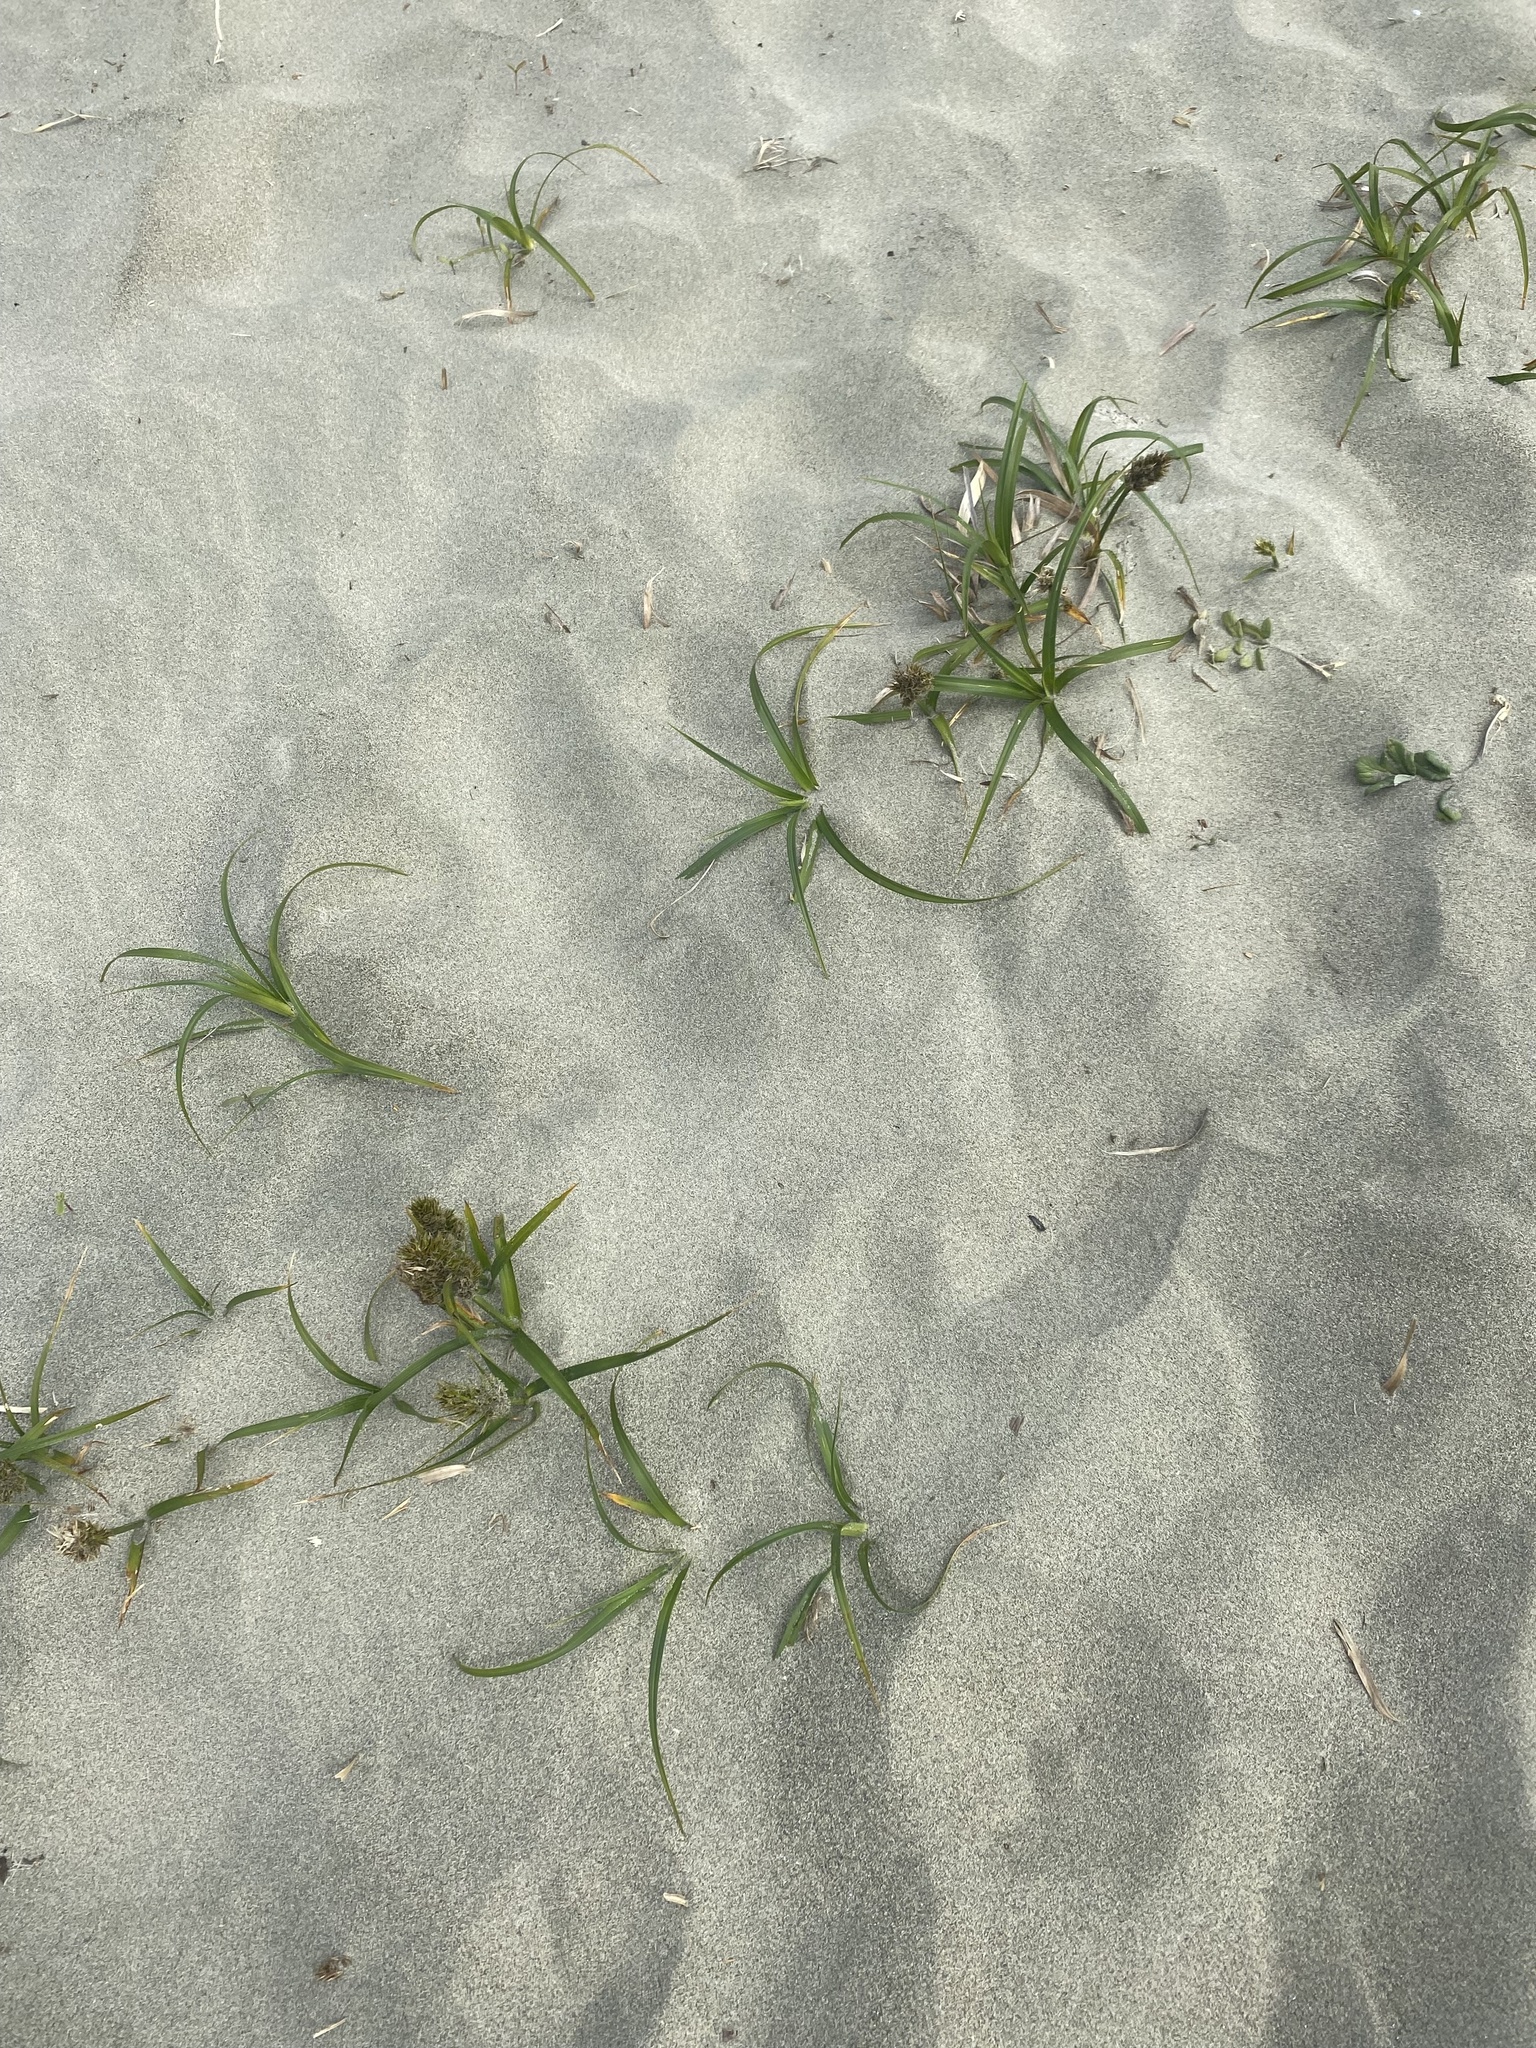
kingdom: Plantae
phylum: Tracheophyta
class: Liliopsida
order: Poales
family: Cyperaceae
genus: Carex
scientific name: Carex macrocephala
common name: Large-head sedge
